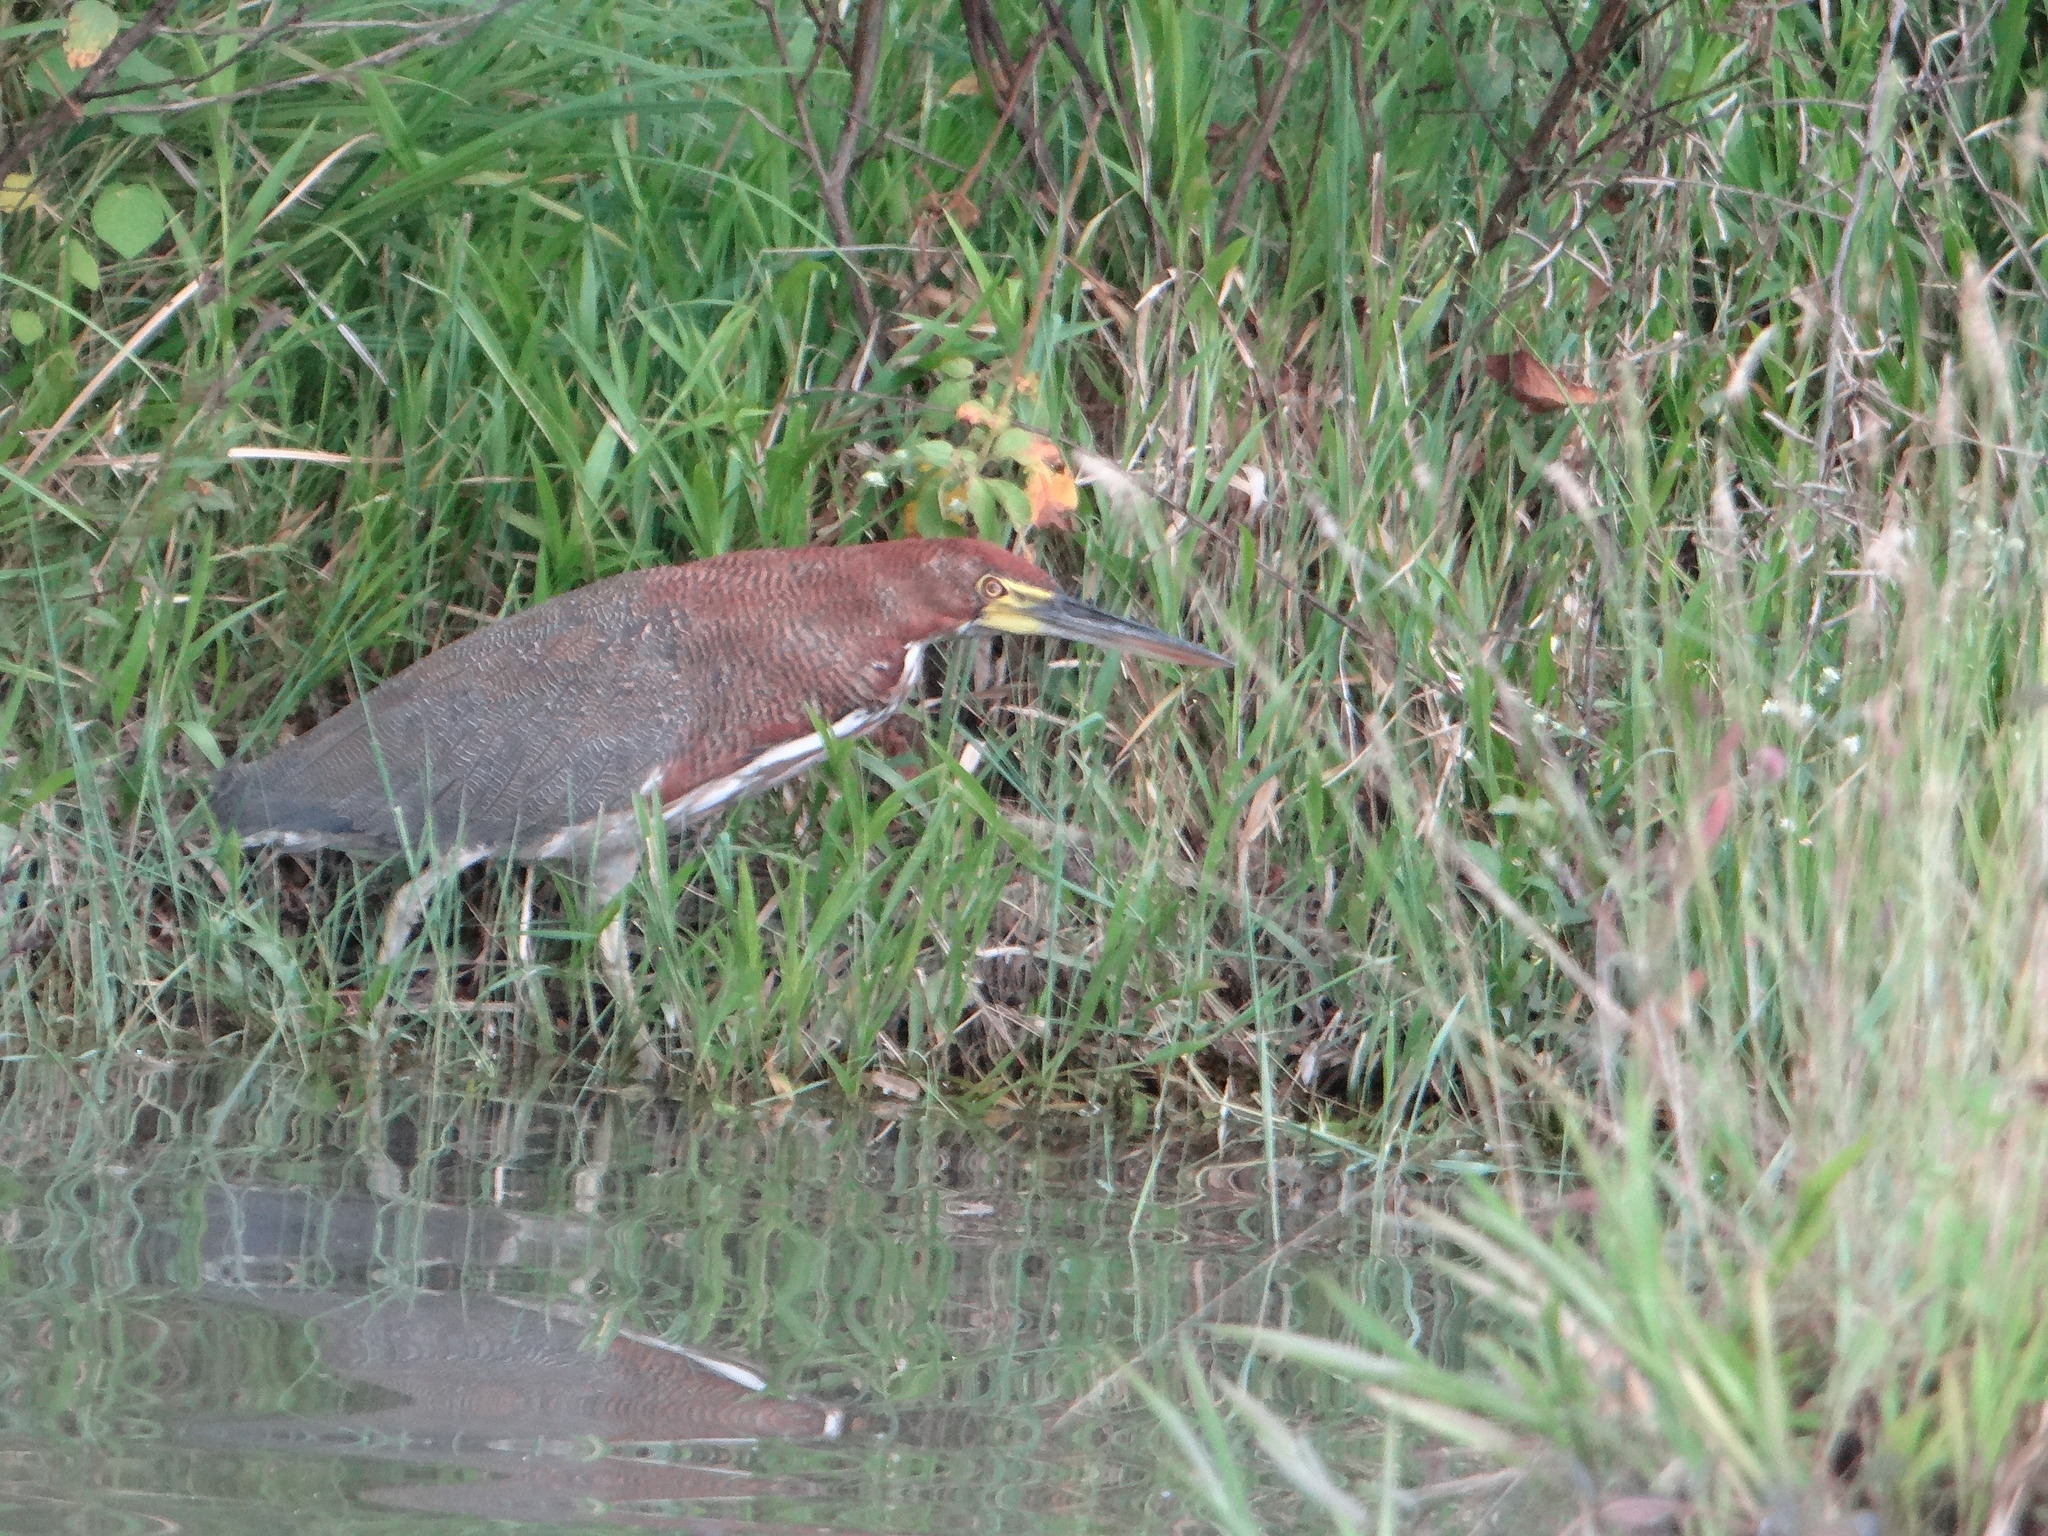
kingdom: Animalia
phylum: Chordata
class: Aves
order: Pelecaniformes
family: Ardeidae
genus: Tigrisoma
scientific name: Tigrisoma lineatum
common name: Rufescent tiger-heron
